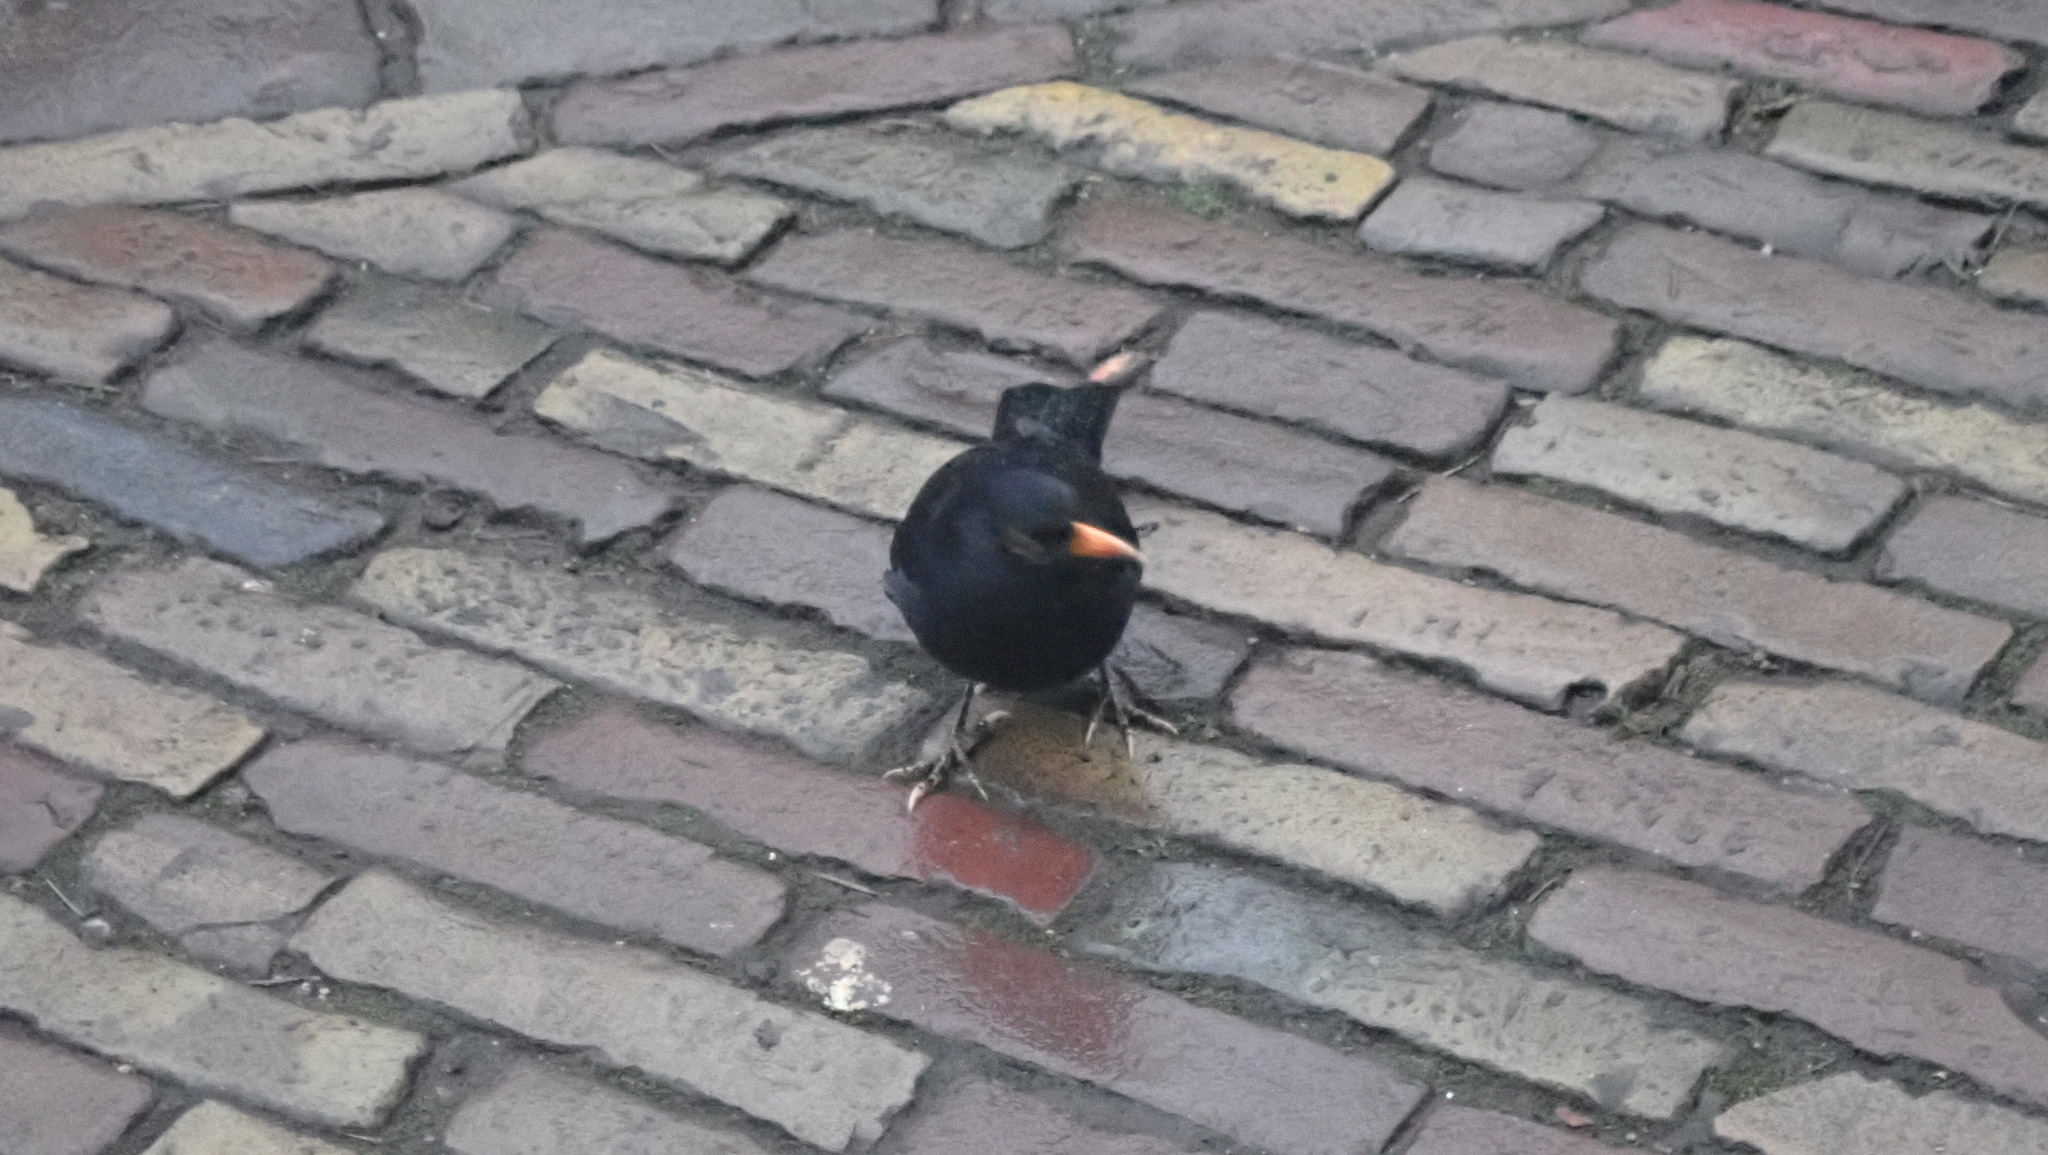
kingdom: Animalia
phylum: Chordata
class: Aves
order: Passeriformes
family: Turdidae
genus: Turdus
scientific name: Turdus merula
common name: Common blackbird
